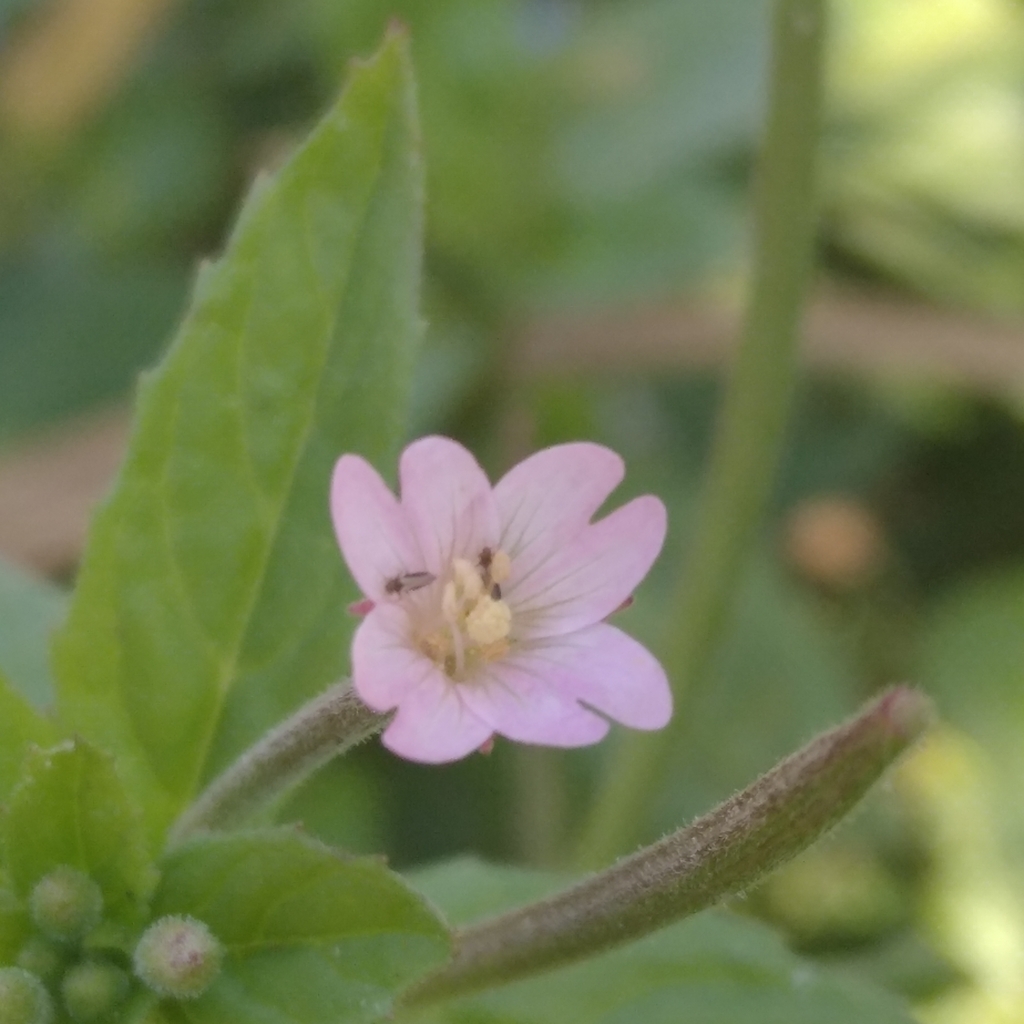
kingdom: Plantae
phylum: Tracheophyta
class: Magnoliopsida
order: Myrtales
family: Onagraceae
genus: Epilobium
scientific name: Epilobium ciliatum
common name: American willowherb
